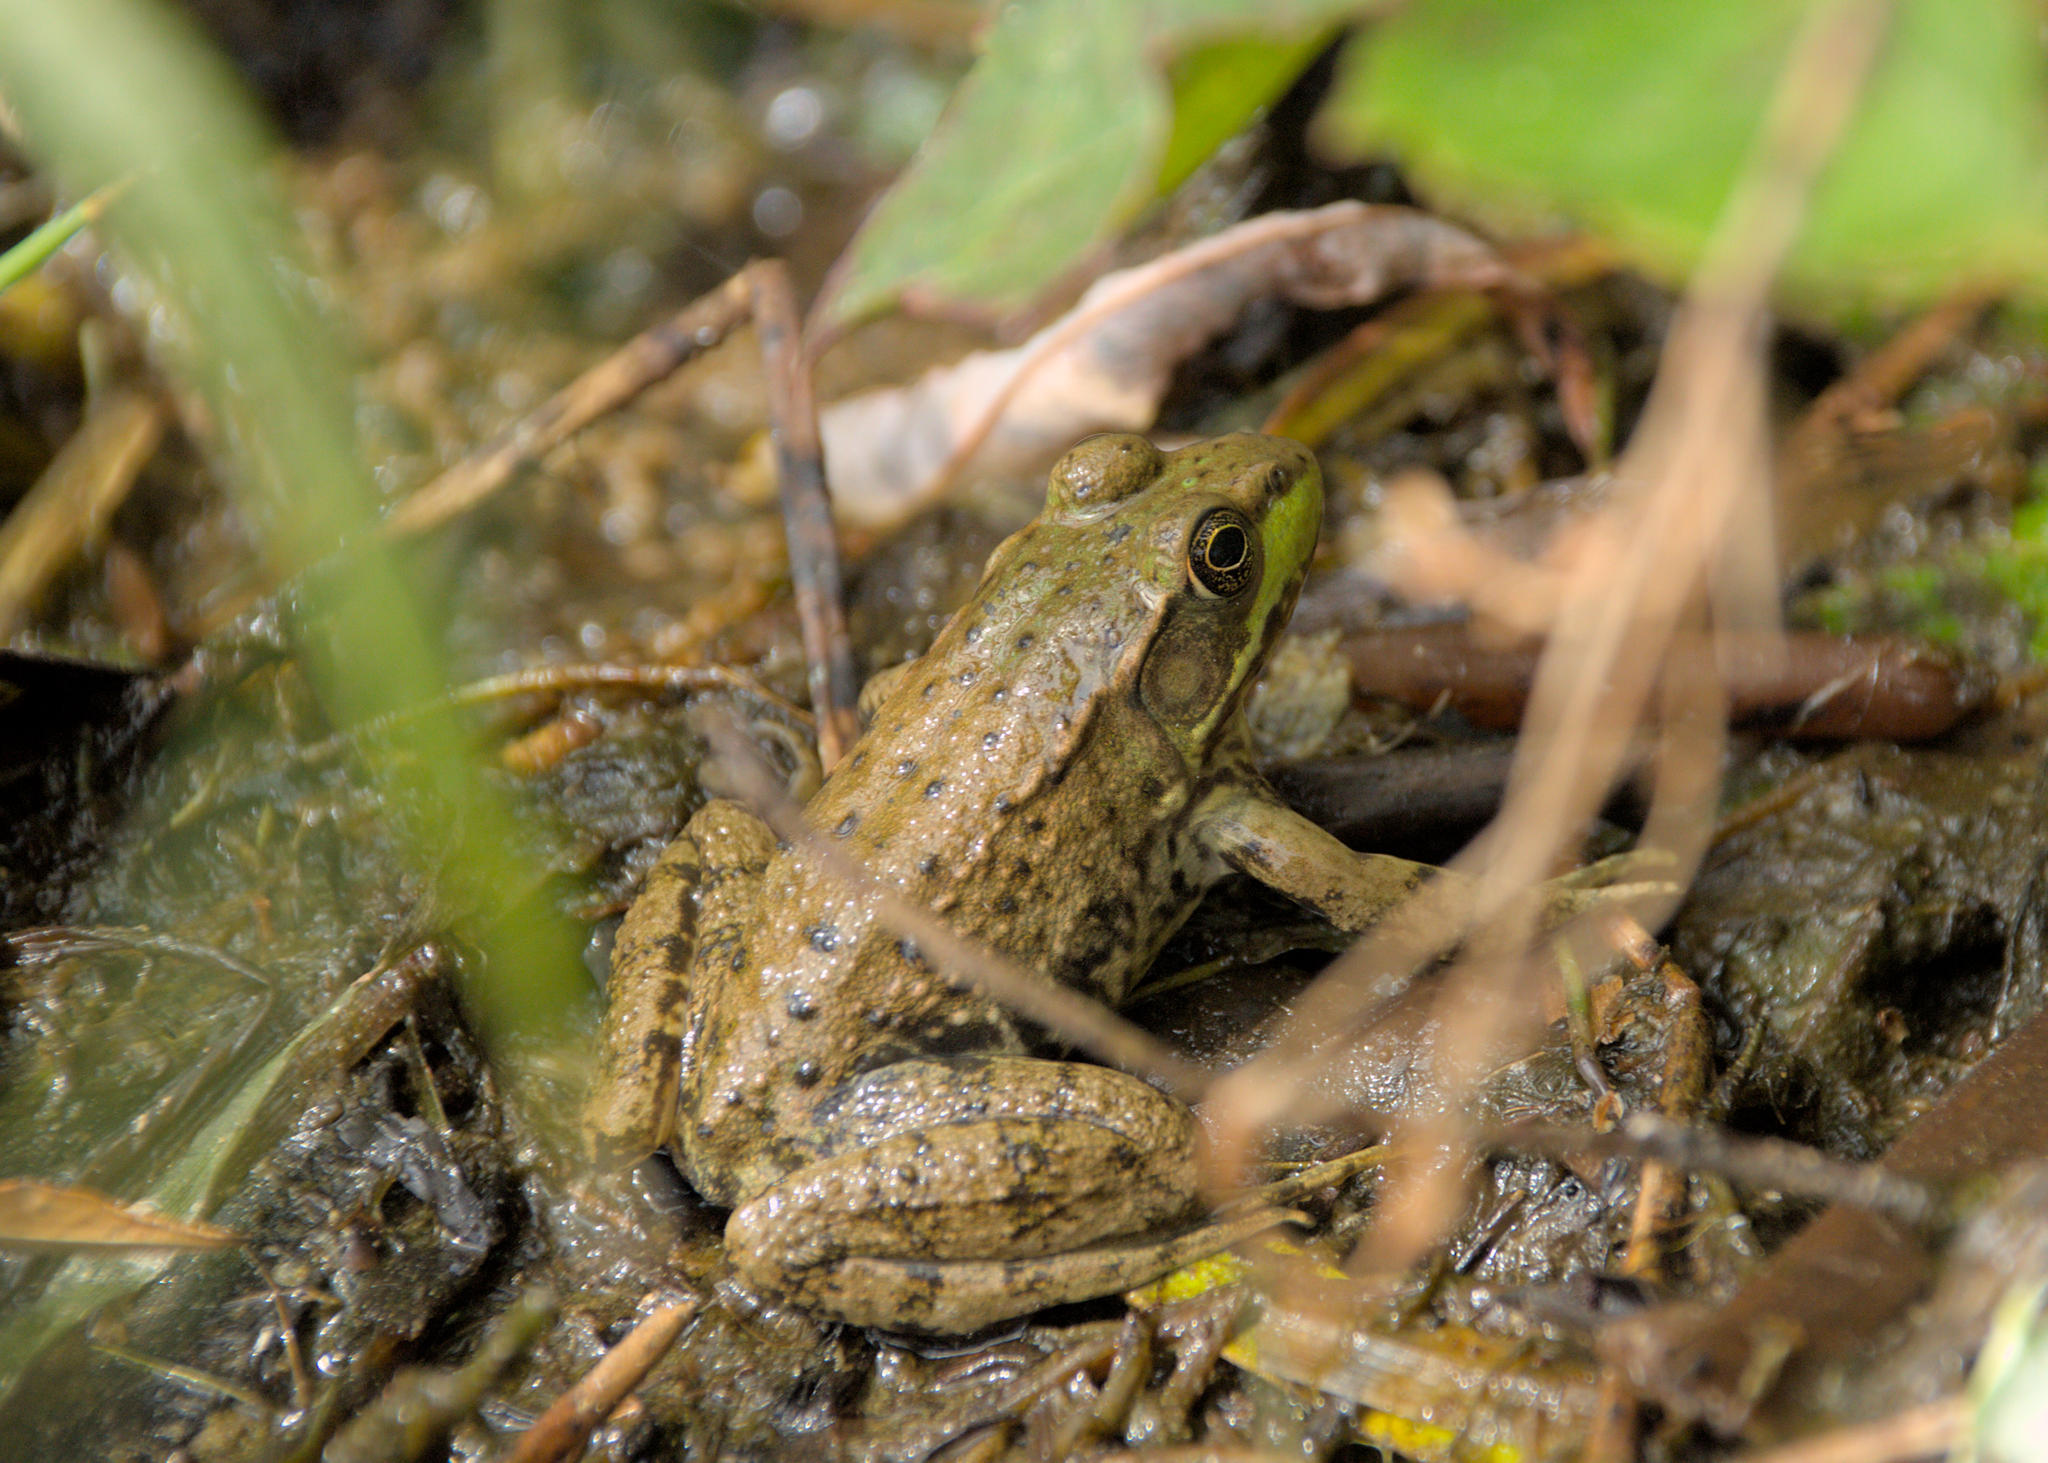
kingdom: Animalia
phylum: Chordata
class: Amphibia
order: Anura
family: Ranidae
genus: Lithobates
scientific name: Lithobates clamitans
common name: Green frog
